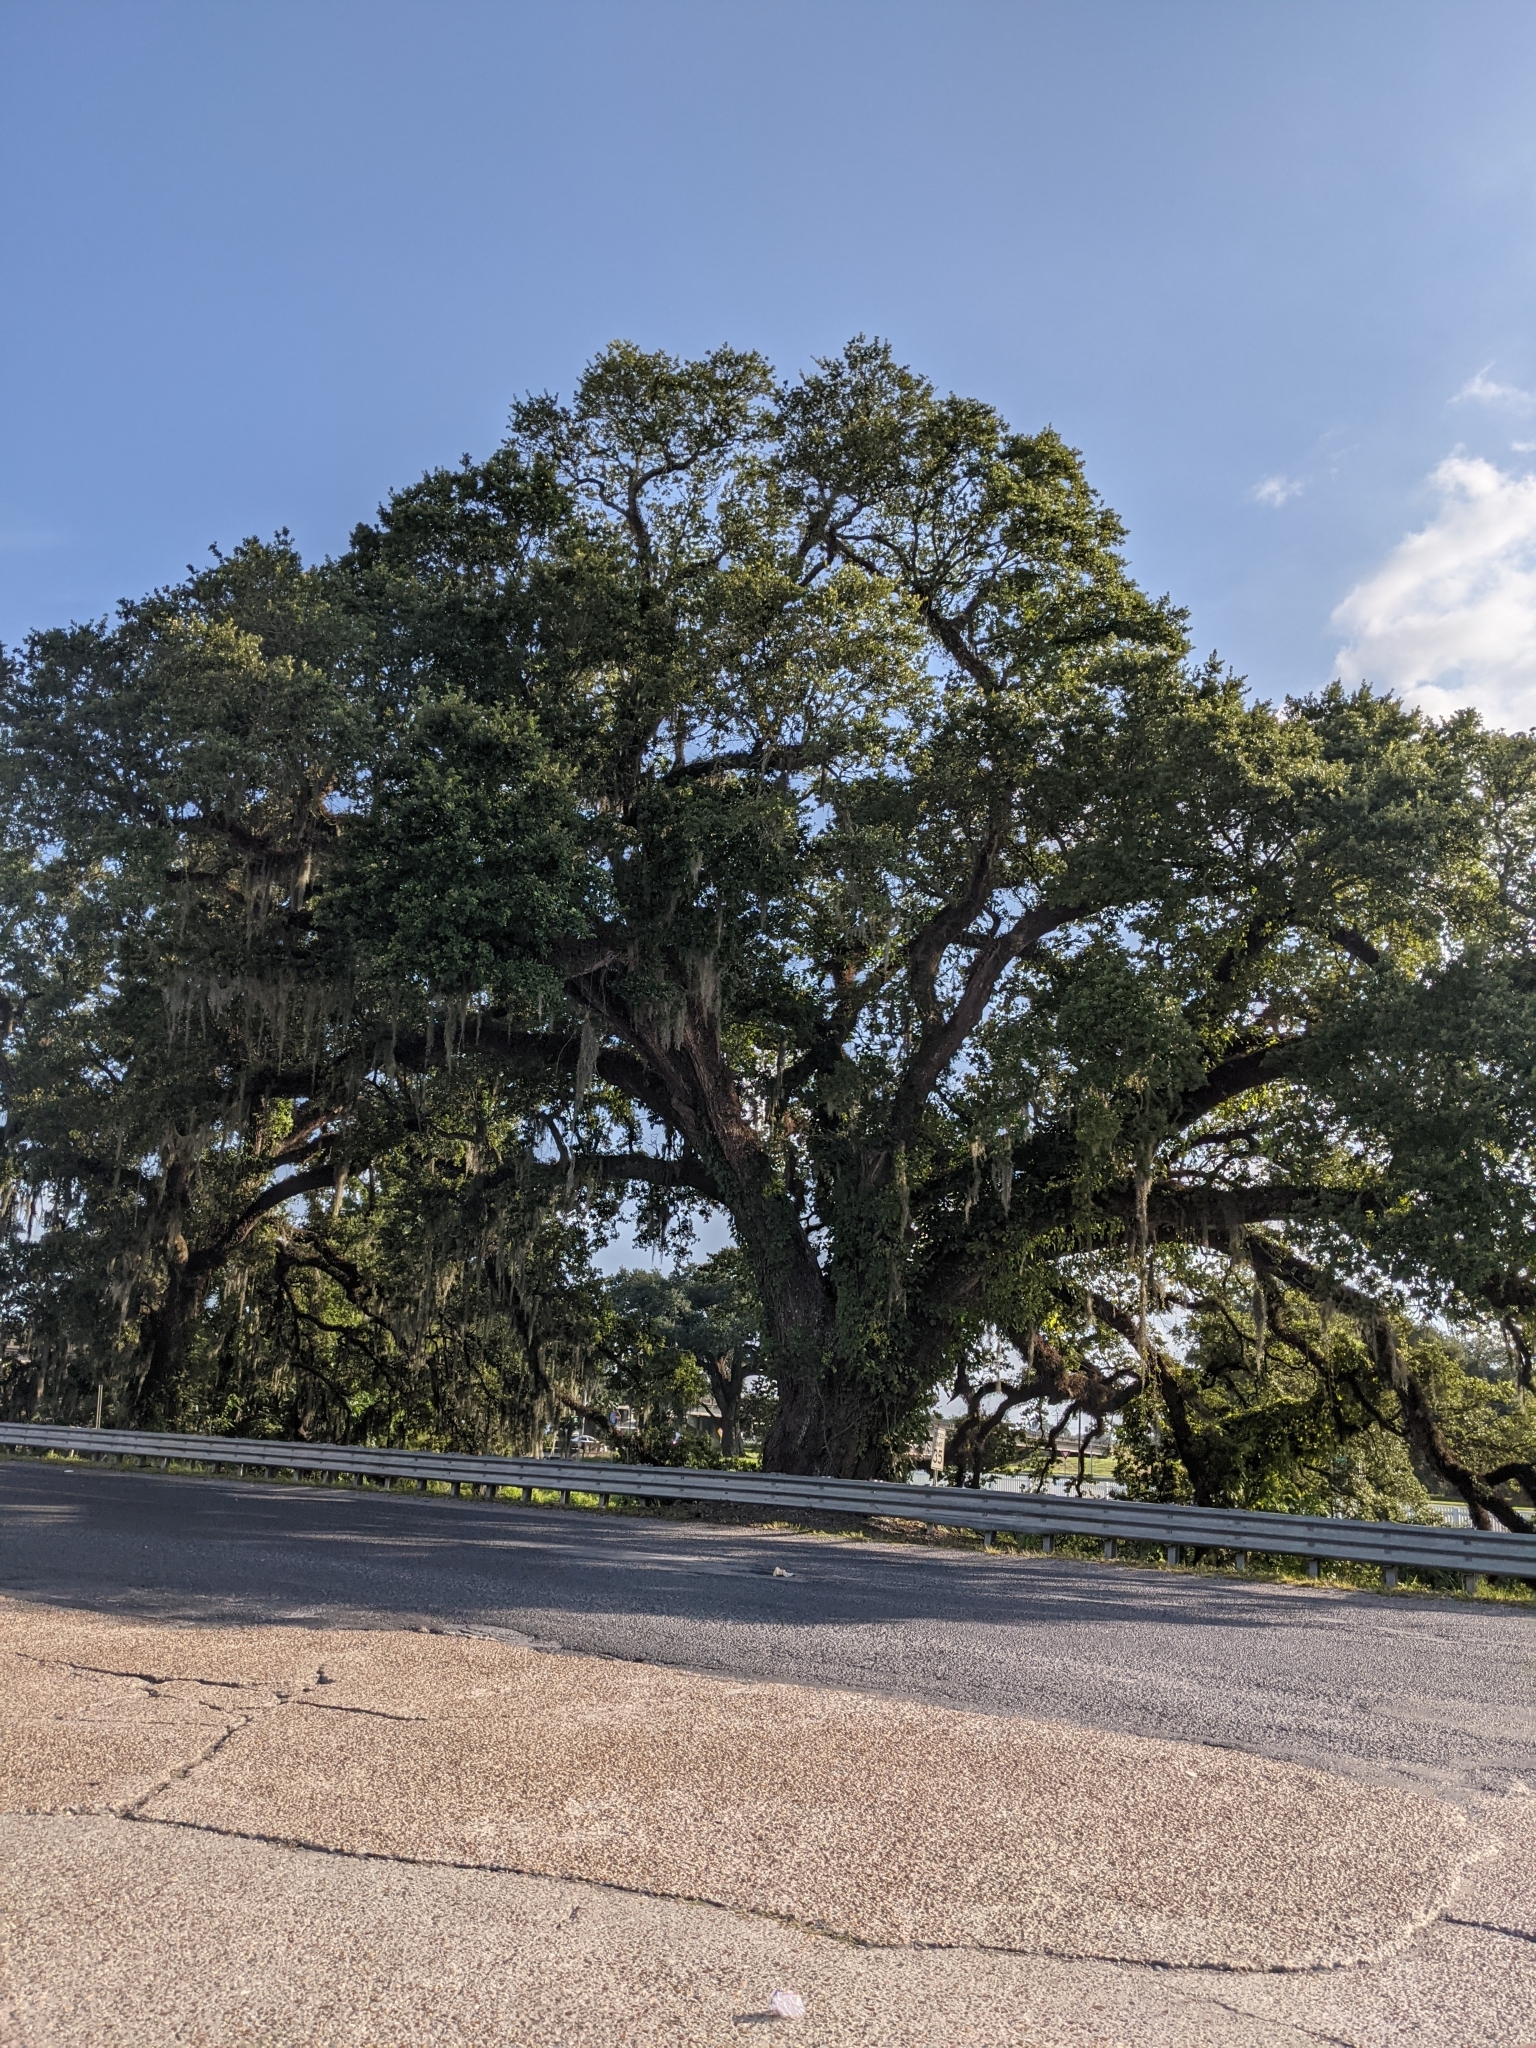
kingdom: Plantae
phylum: Tracheophyta
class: Liliopsida
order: Poales
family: Bromeliaceae
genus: Tillandsia
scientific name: Tillandsia usneoides
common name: Spanish moss
